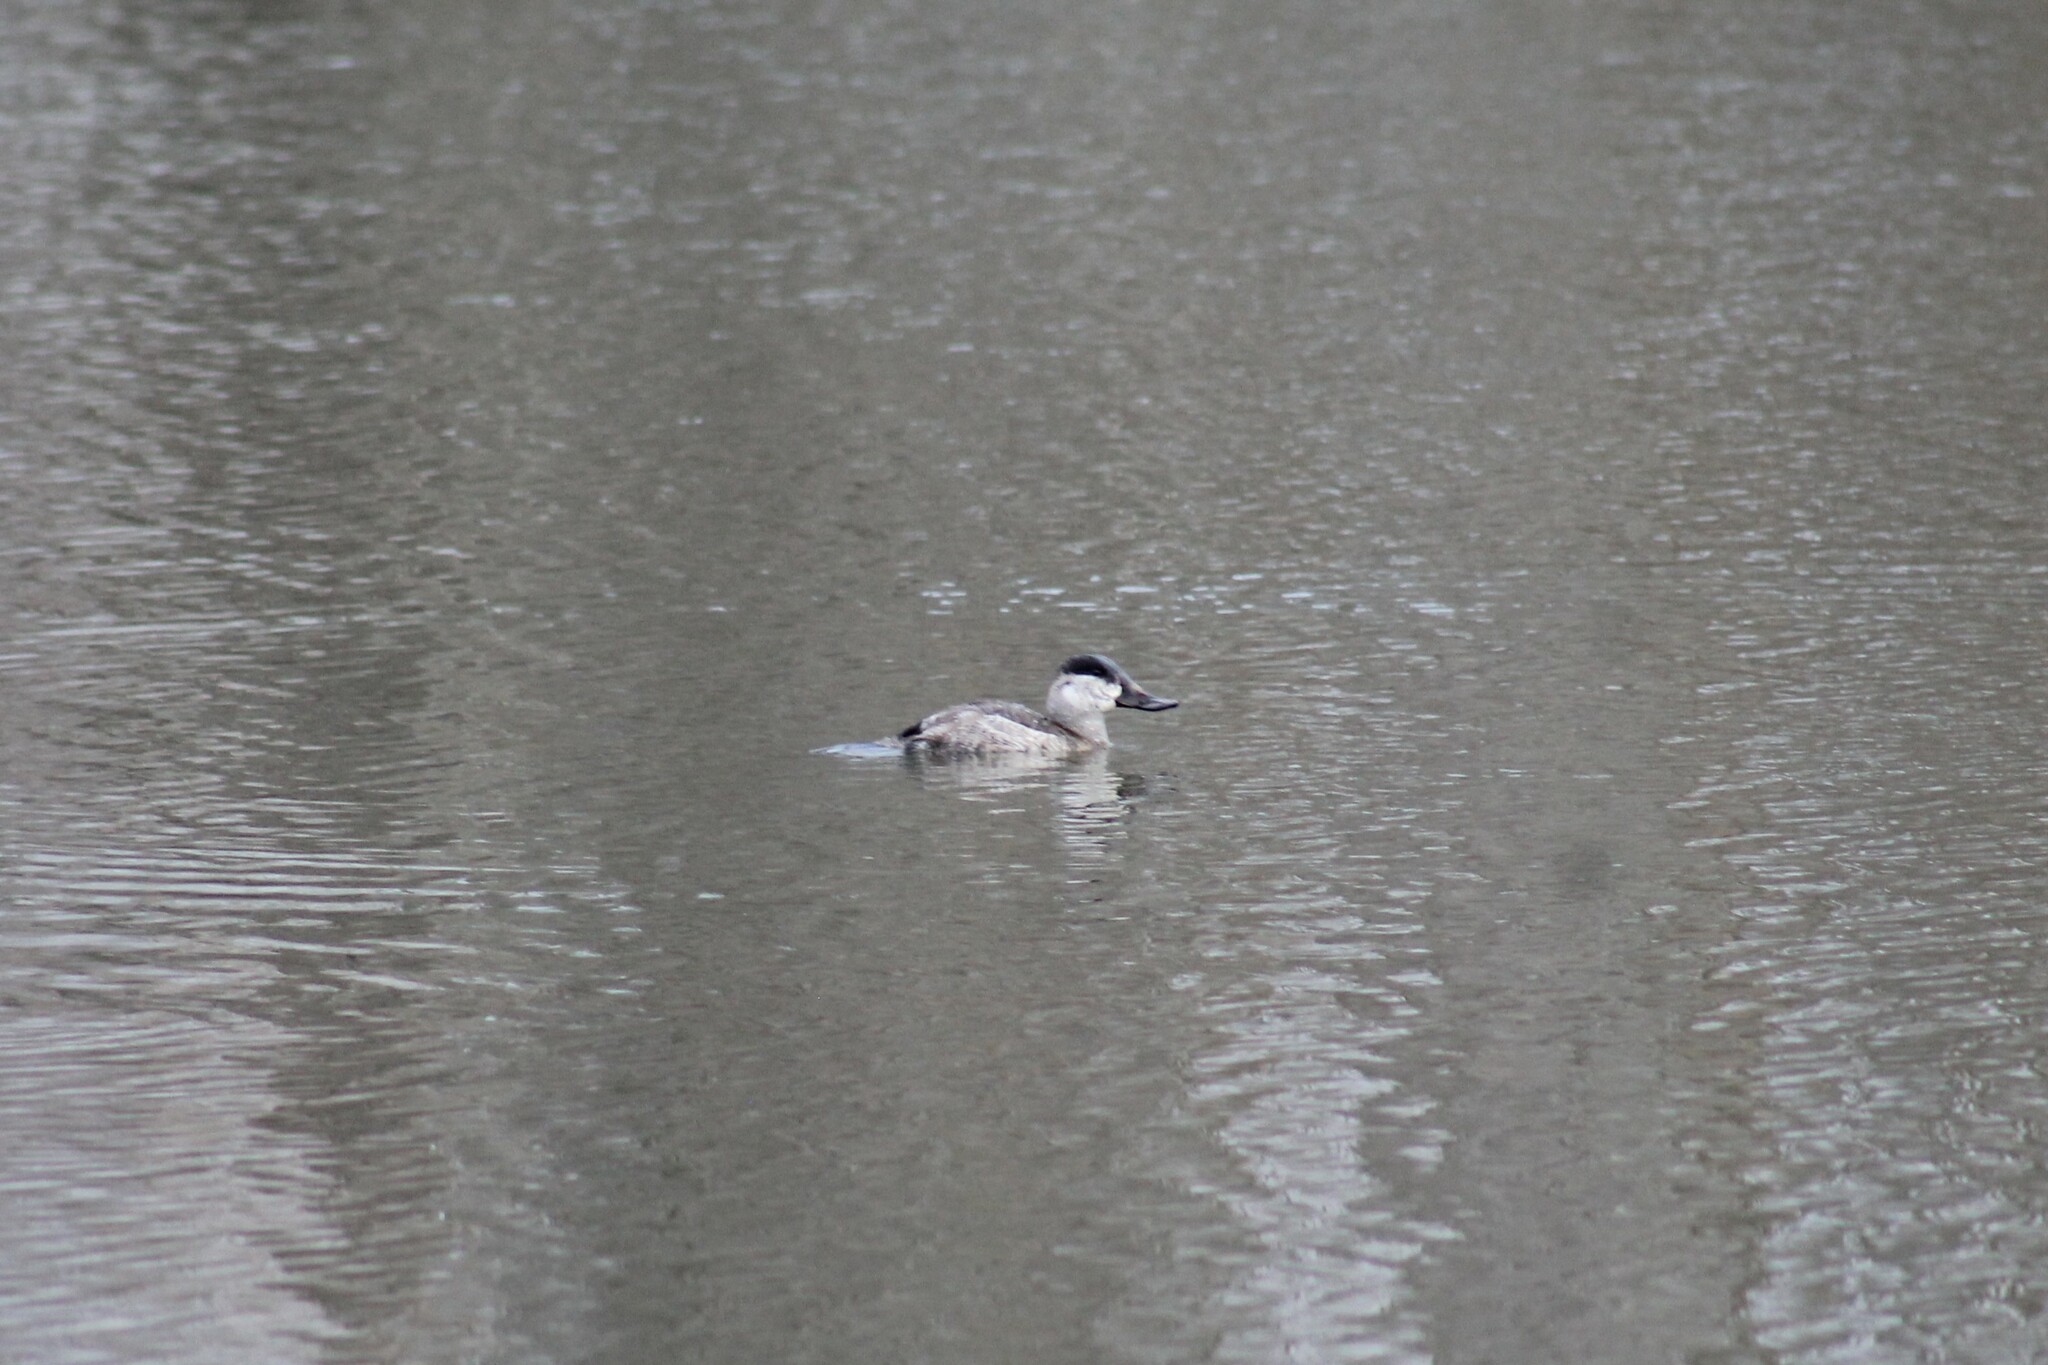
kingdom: Animalia
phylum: Chordata
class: Aves
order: Anseriformes
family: Anatidae
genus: Oxyura
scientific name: Oxyura jamaicensis
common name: Ruddy duck
